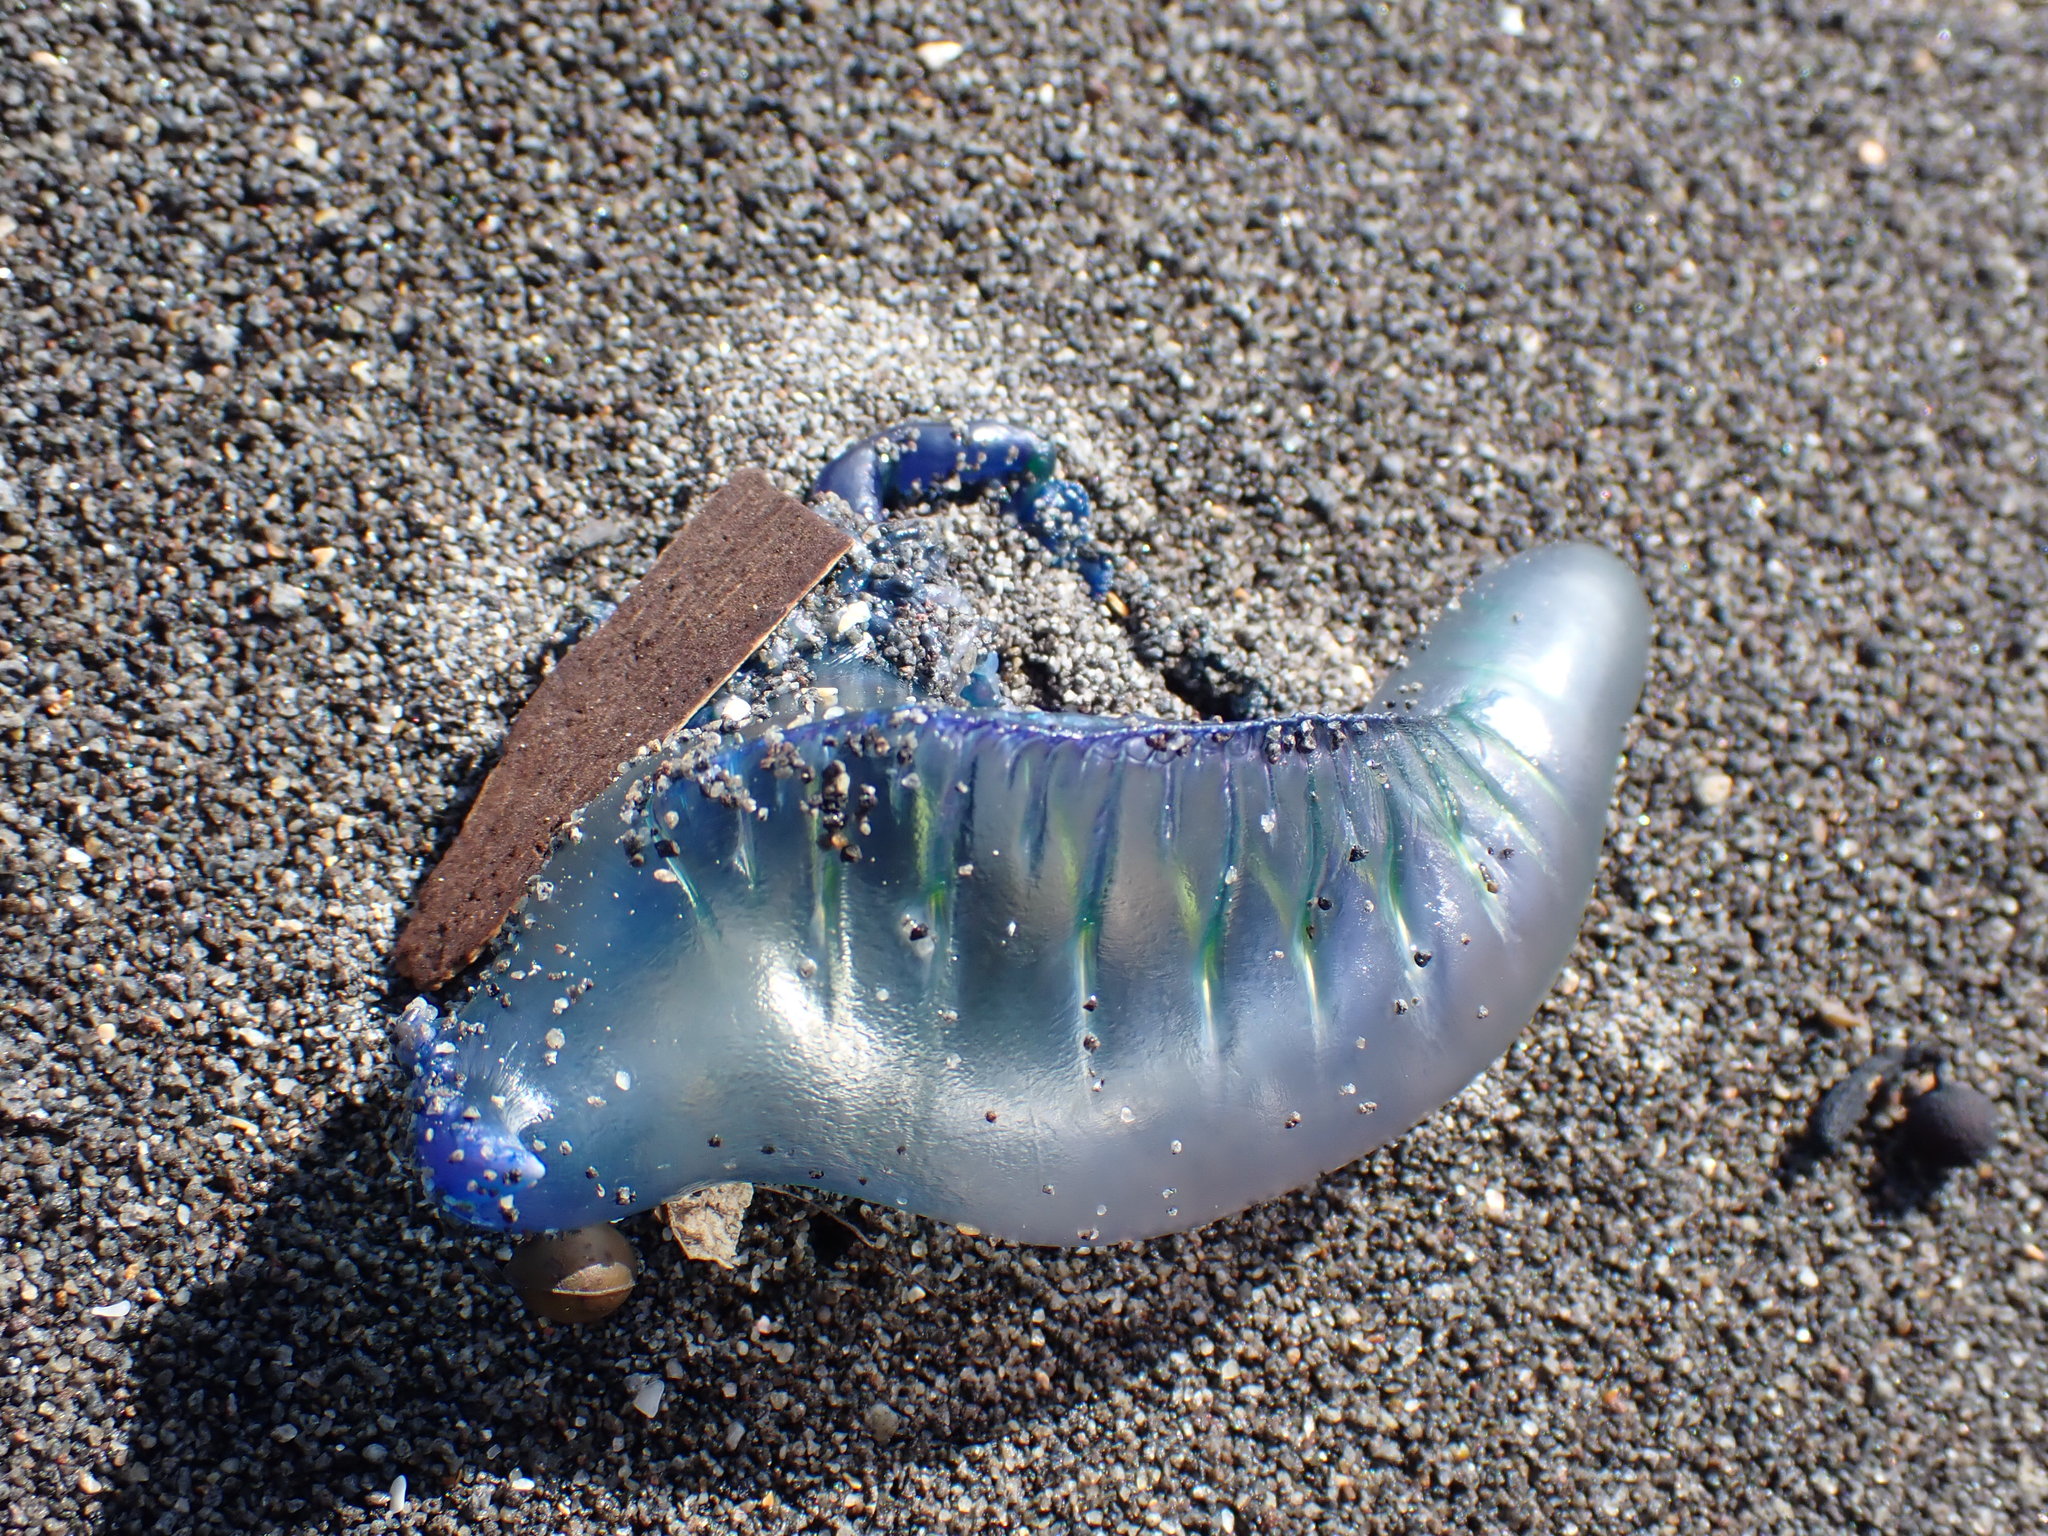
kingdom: Animalia
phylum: Cnidaria
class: Hydrozoa
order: Siphonophorae
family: Physaliidae
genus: Physalia
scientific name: Physalia physalis
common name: Portuguese man-of-war
